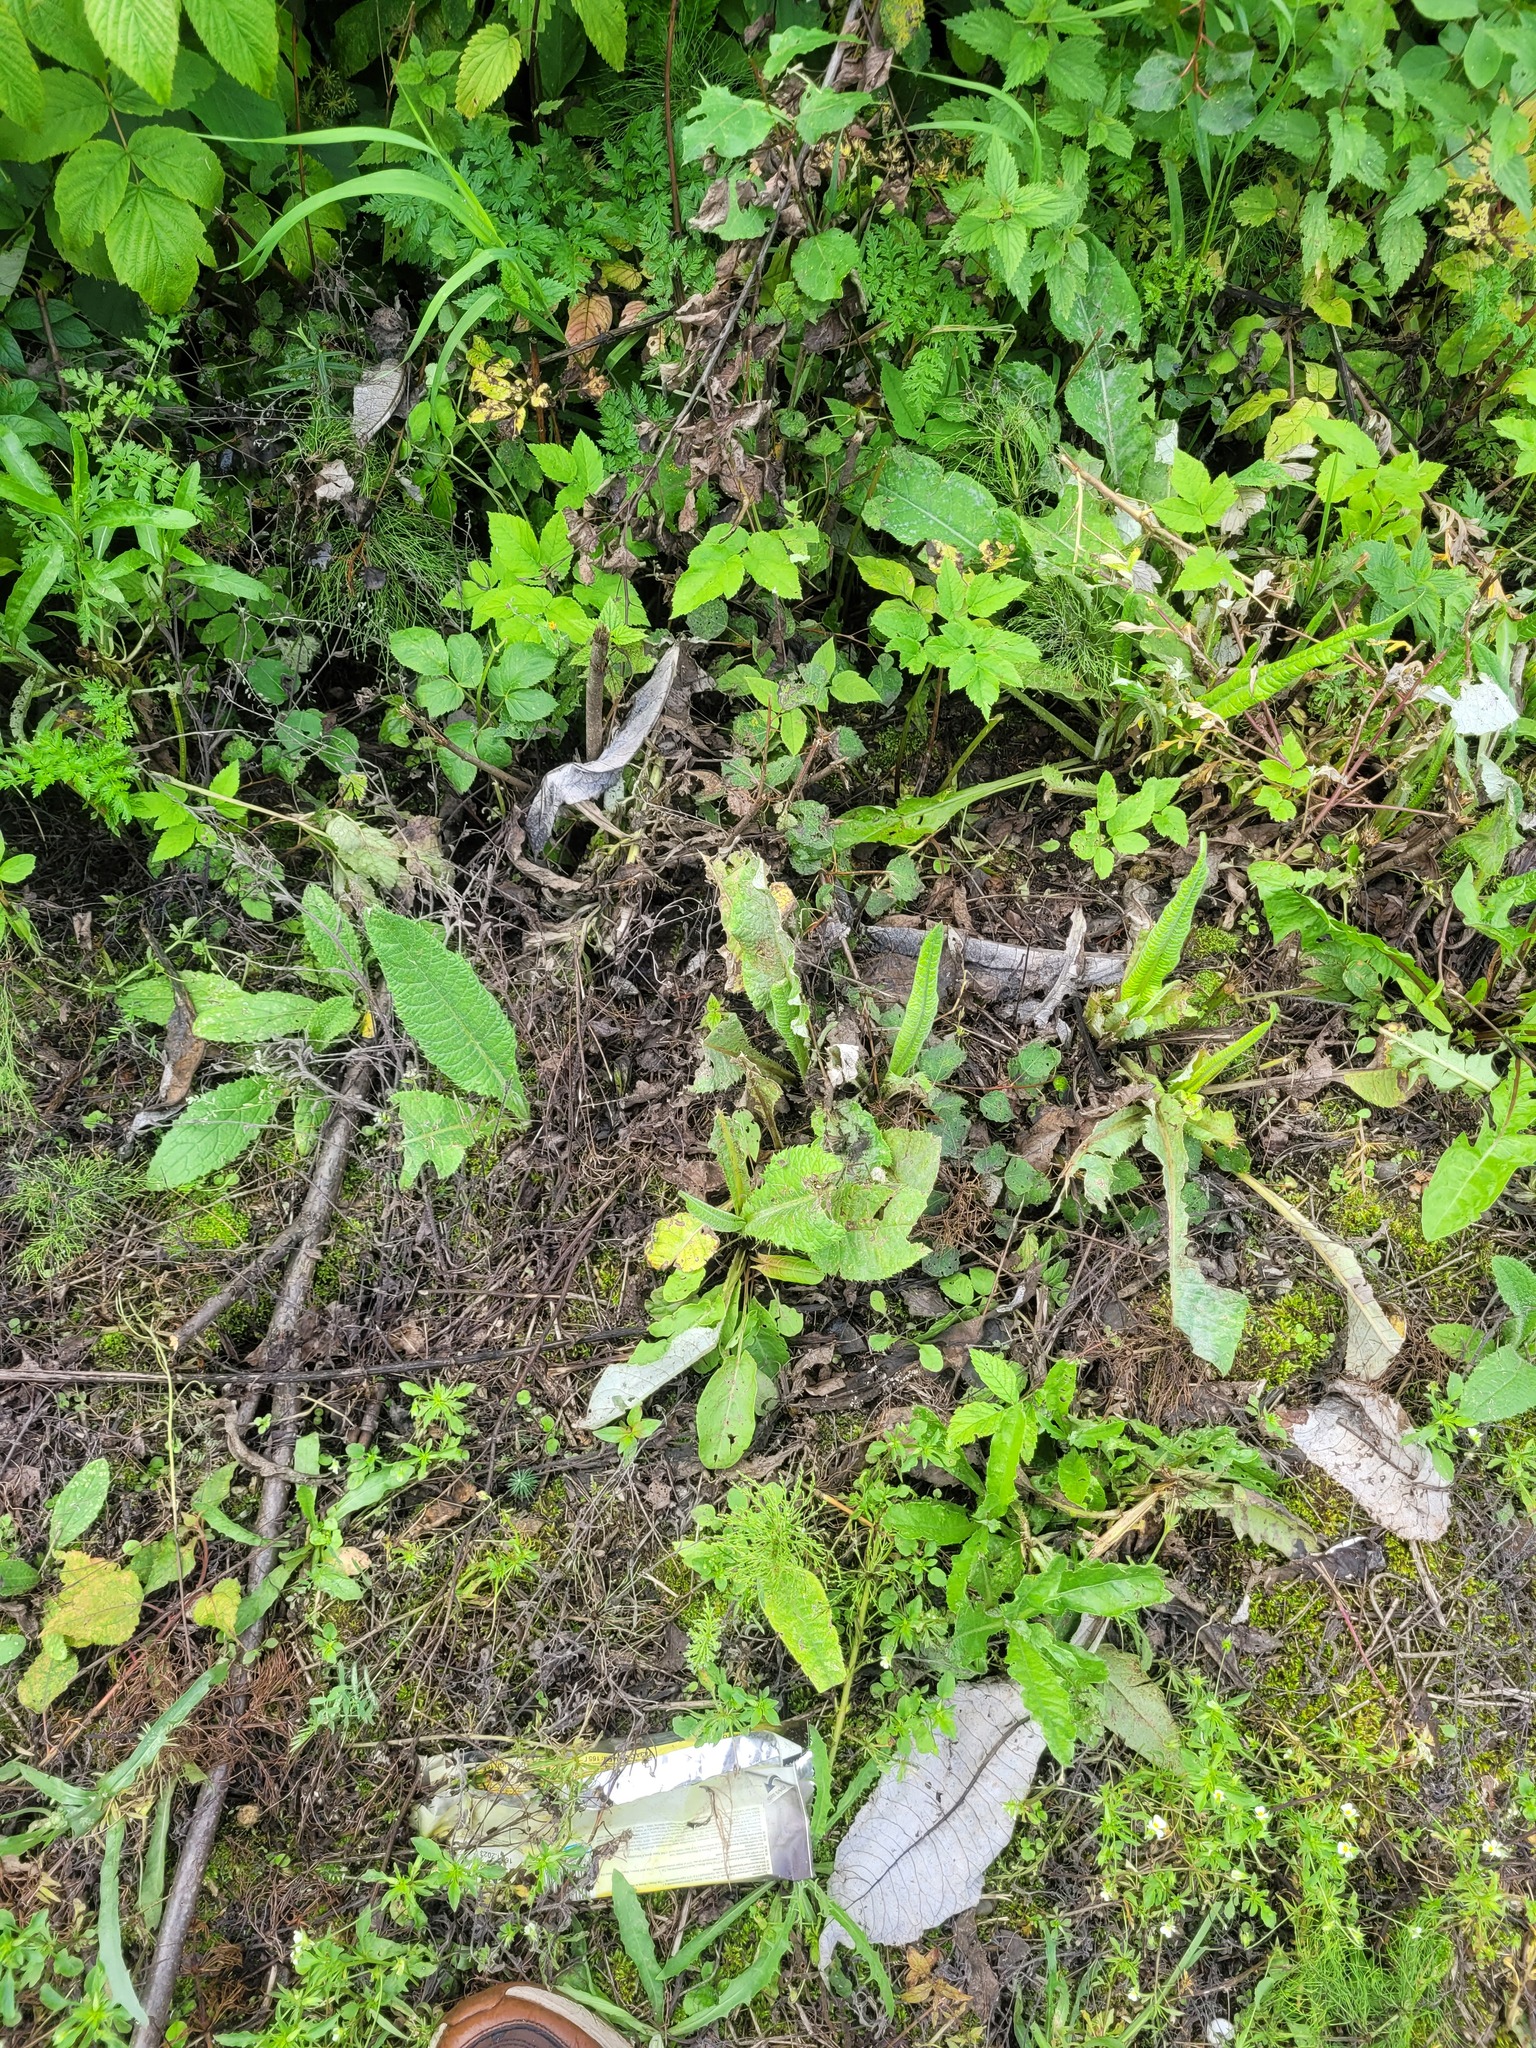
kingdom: Plantae
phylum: Tracheophyta
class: Magnoliopsida
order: Asterales
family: Asteraceae
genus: Cirsium
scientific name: Cirsium heterophyllum
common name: Melancholy thistle
